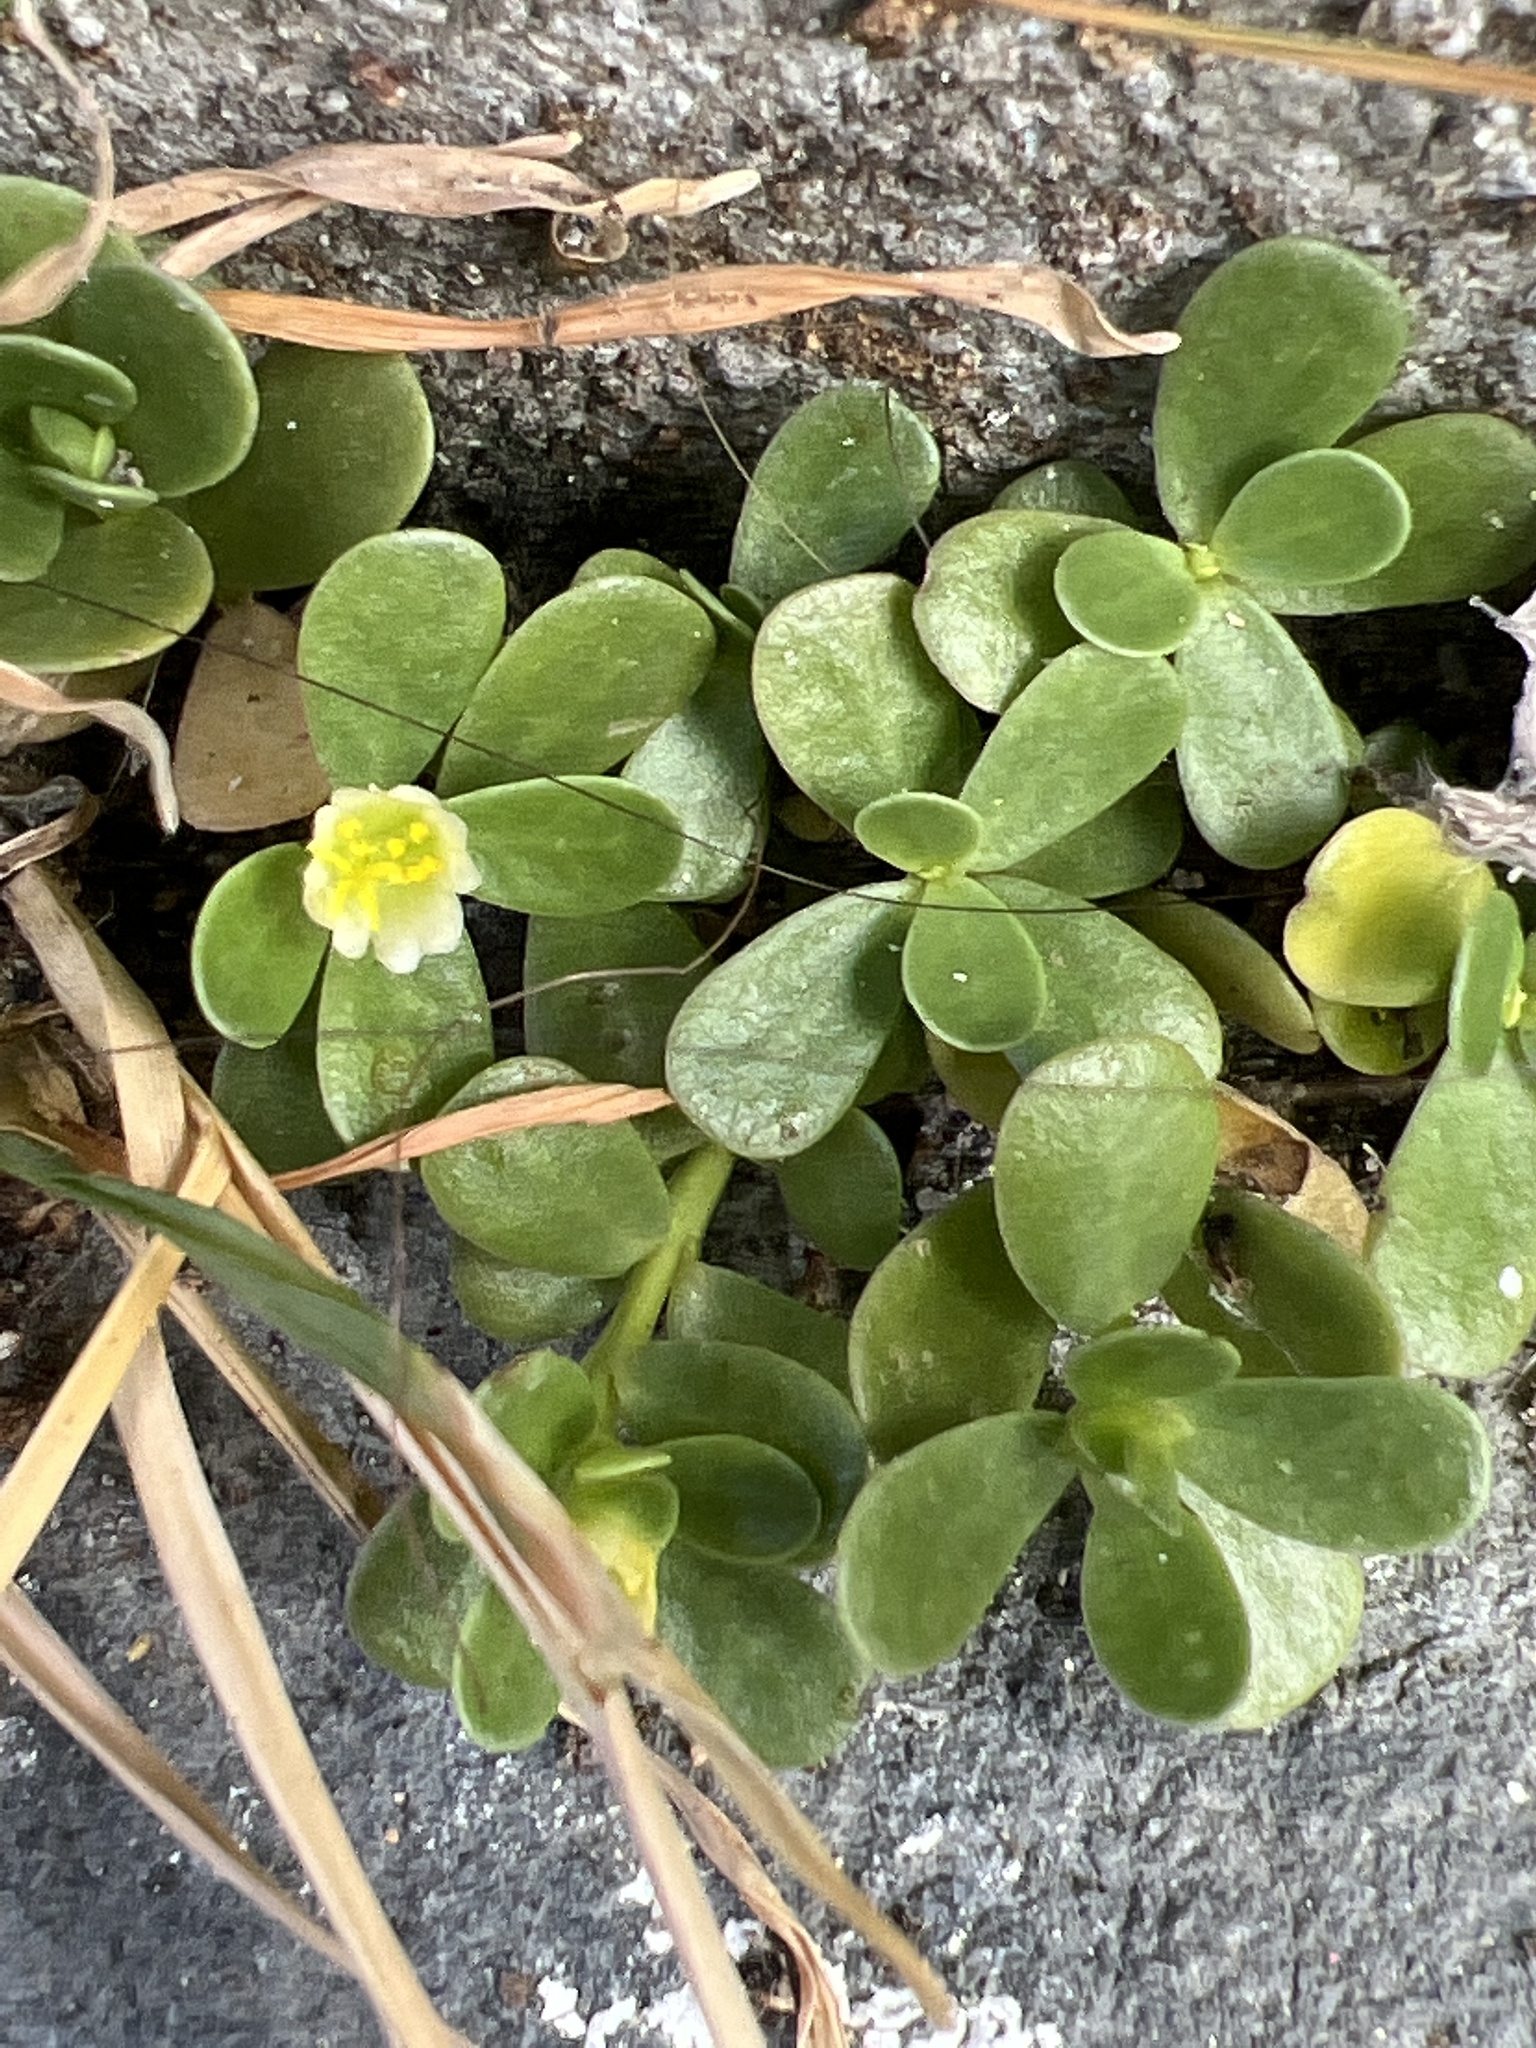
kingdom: Plantae
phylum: Tracheophyta
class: Magnoliopsida
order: Caryophyllales
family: Portulacaceae
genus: Portulaca
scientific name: Portulaca oleracea
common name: Common purslane
